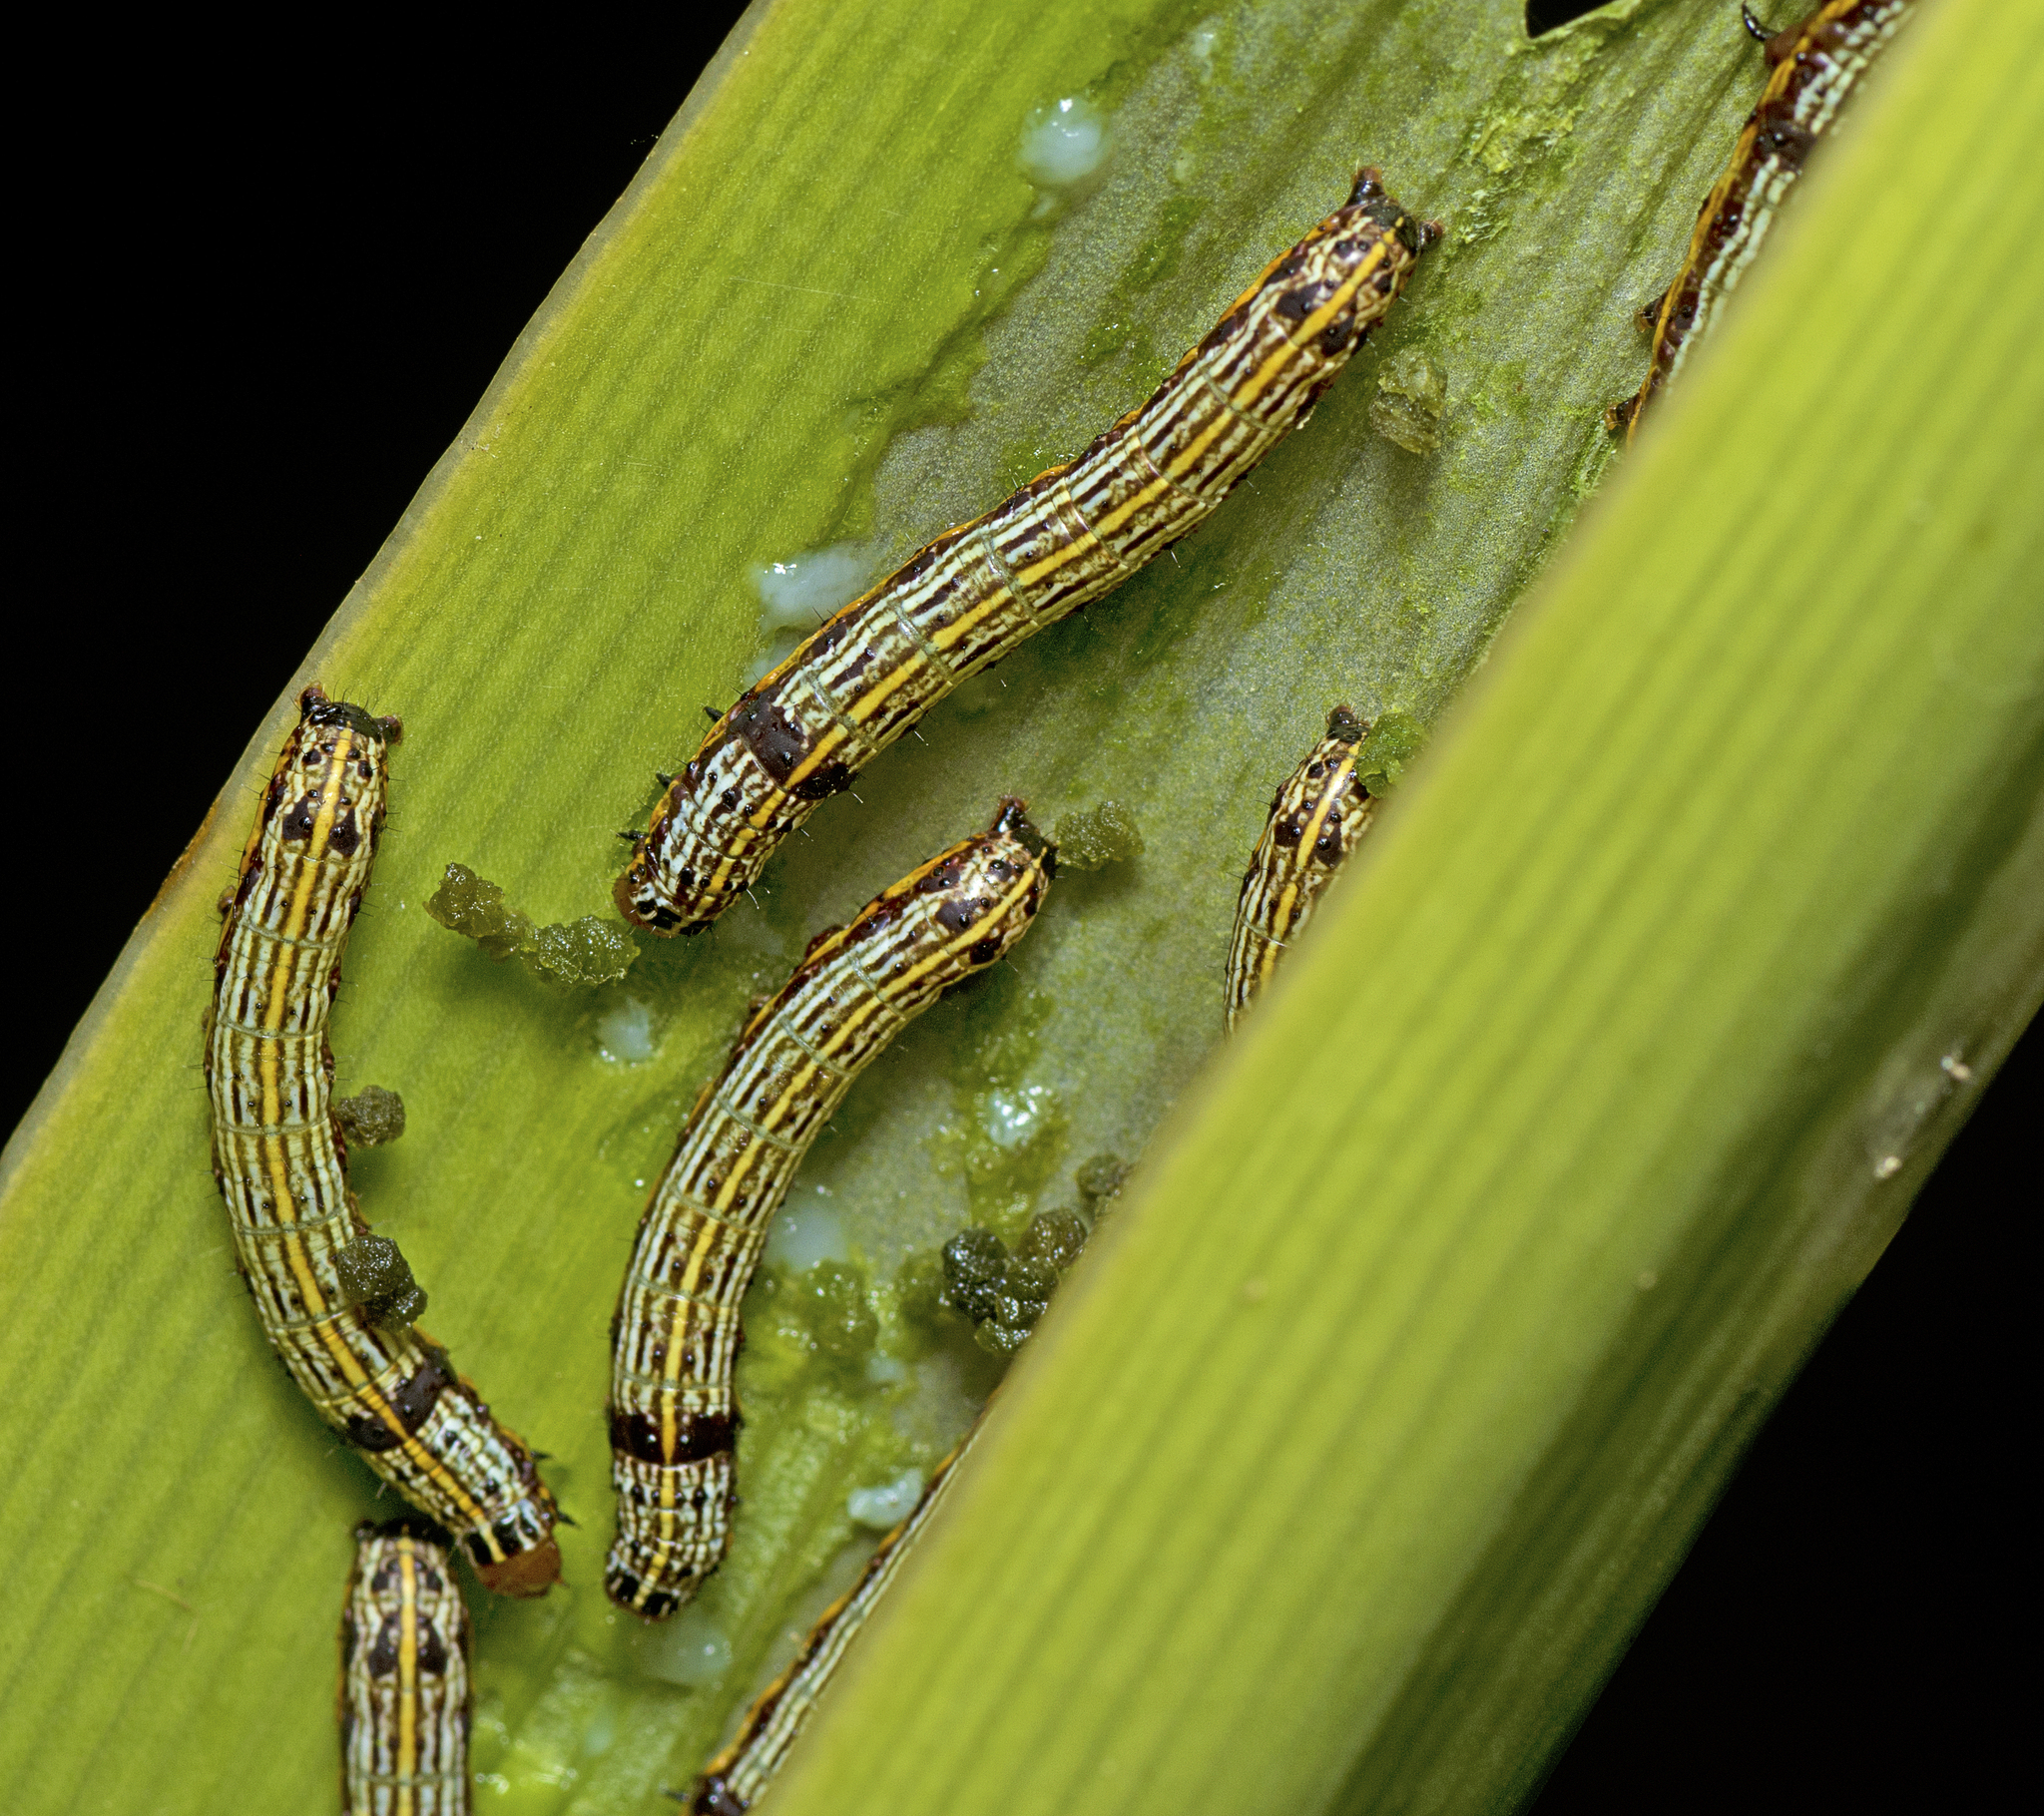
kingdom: Animalia
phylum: Arthropoda
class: Insecta
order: Lepidoptera
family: Noctuidae
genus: Spodoptera
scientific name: Spodoptera picta
